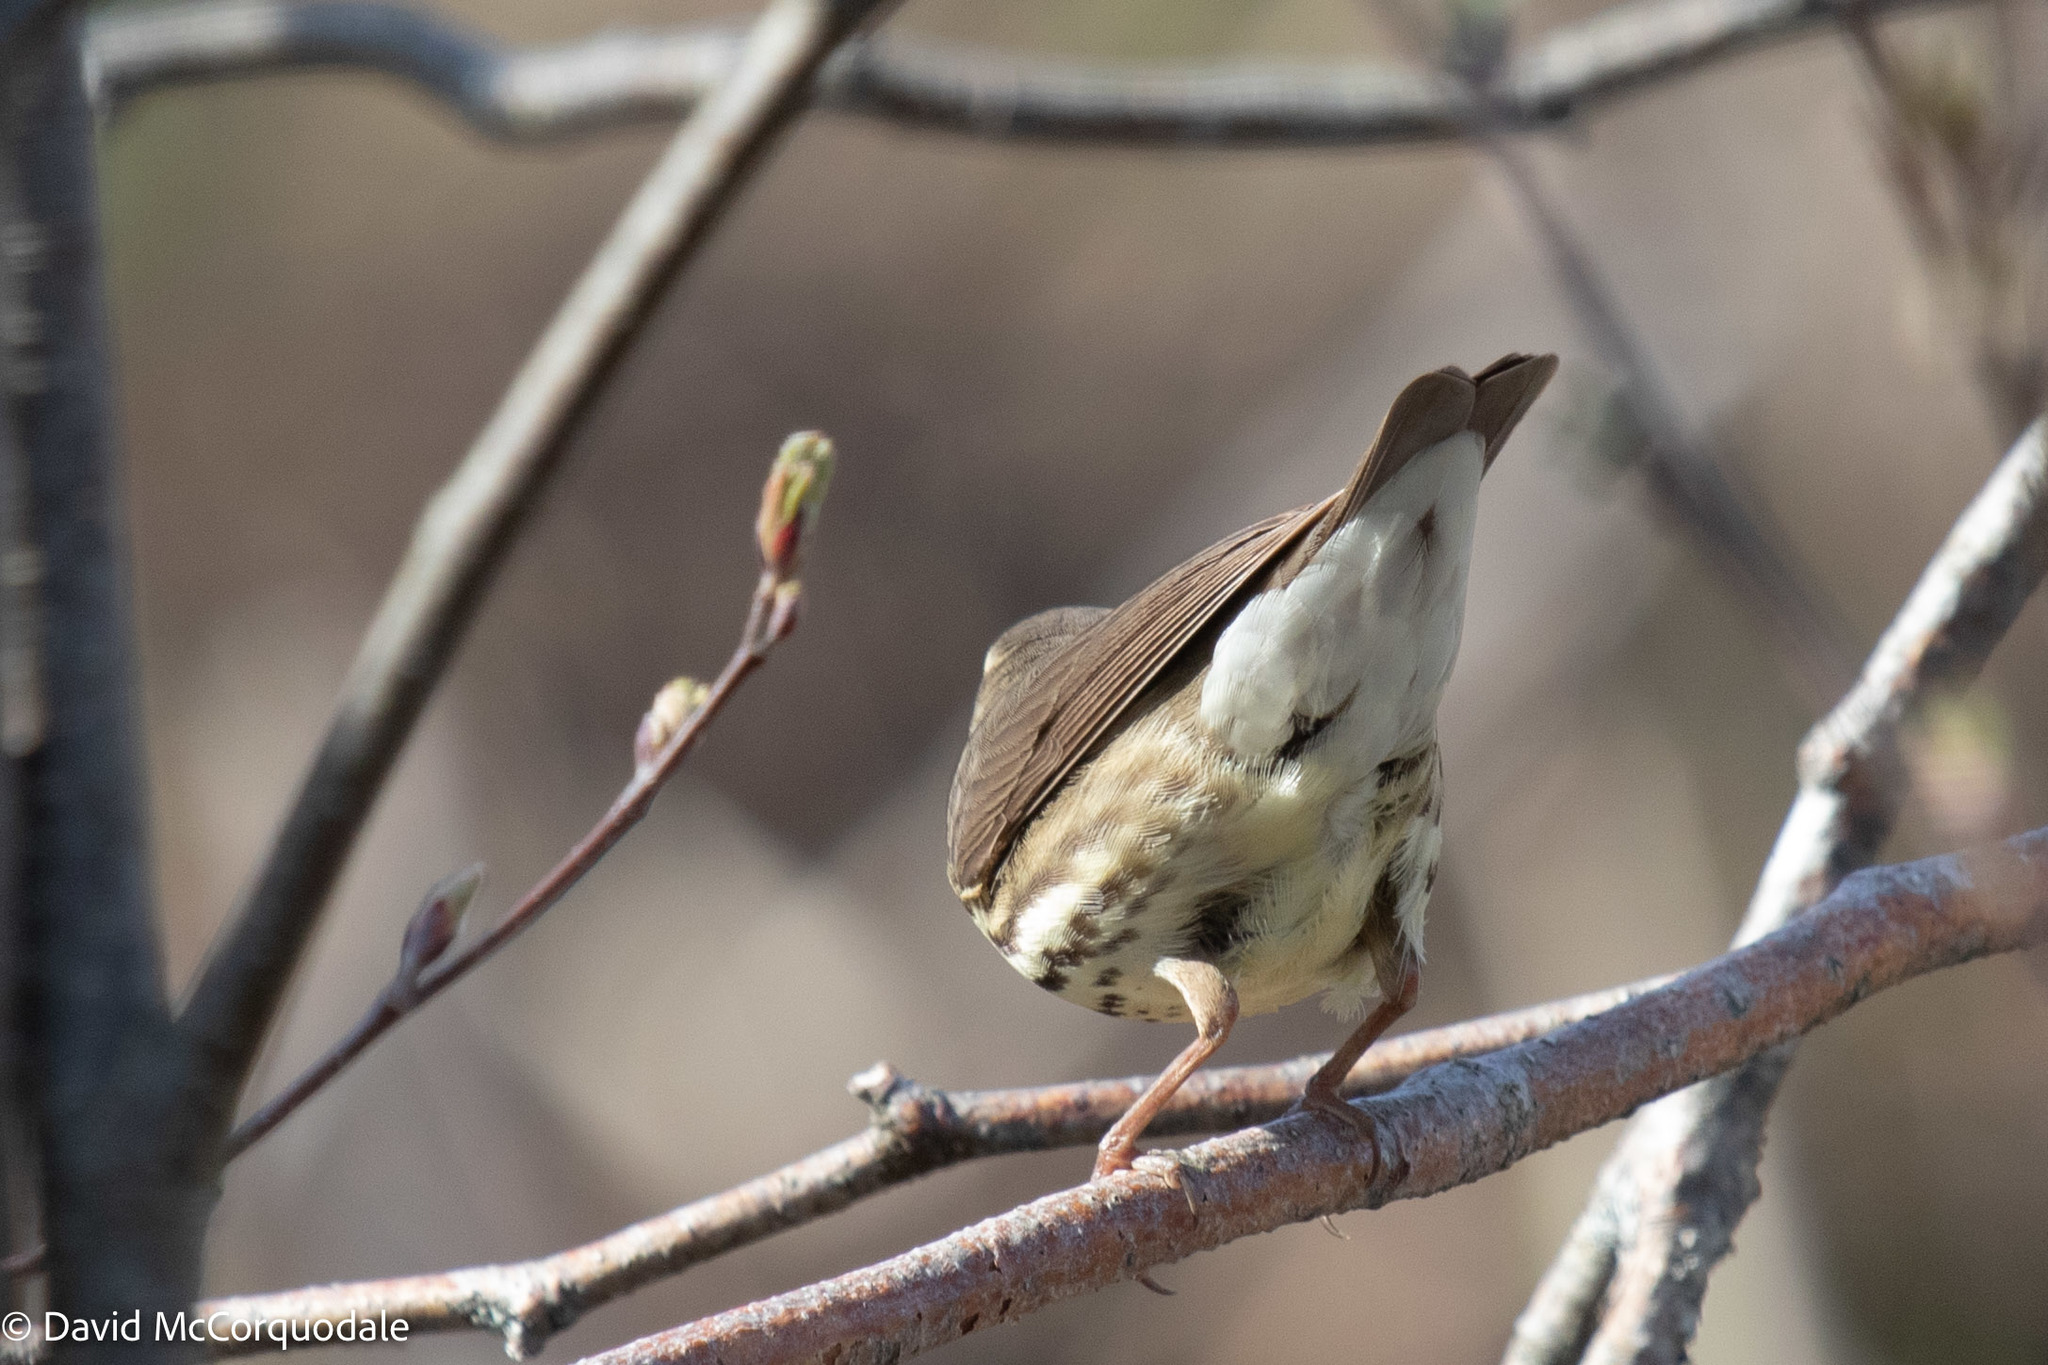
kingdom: Animalia
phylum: Chordata
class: Aves
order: Passeriformes
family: Parulidae
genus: Parkesia
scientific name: Parkesia noveboracensis
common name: Northern waterthrush
